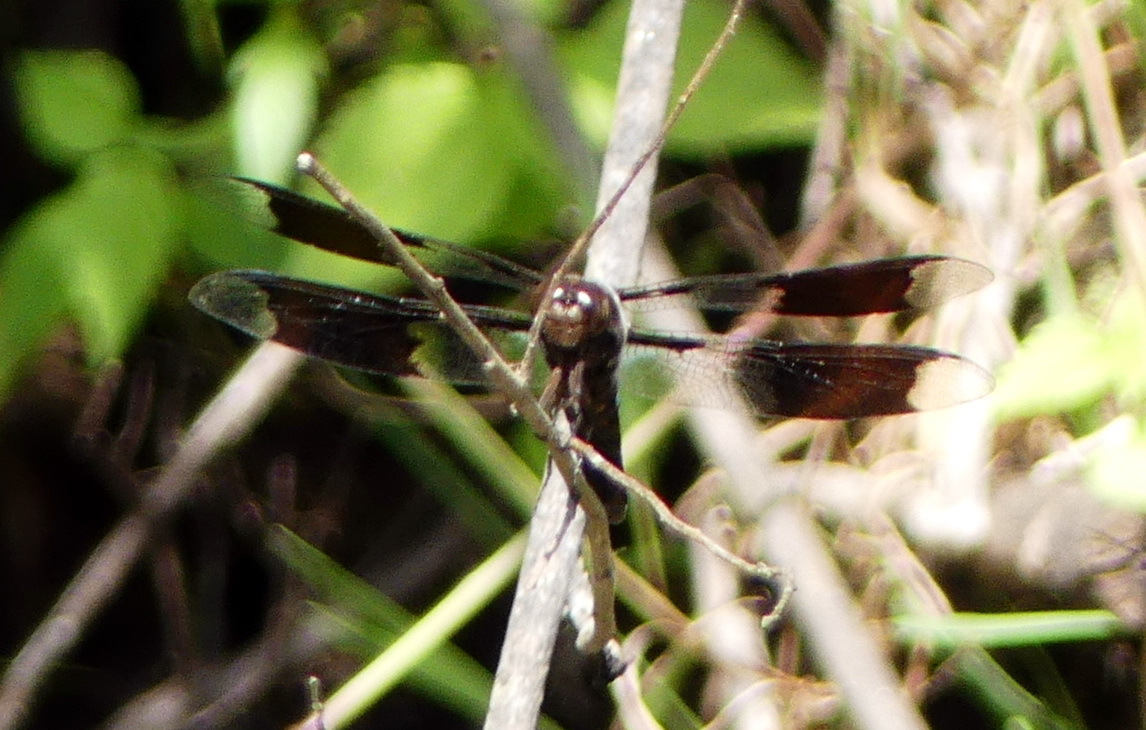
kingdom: Animalia
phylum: Arthropoda
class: Insecta
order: Odonata
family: Libellulidae
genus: Plathemis
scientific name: Plathemis lydia
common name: Common whitetail
